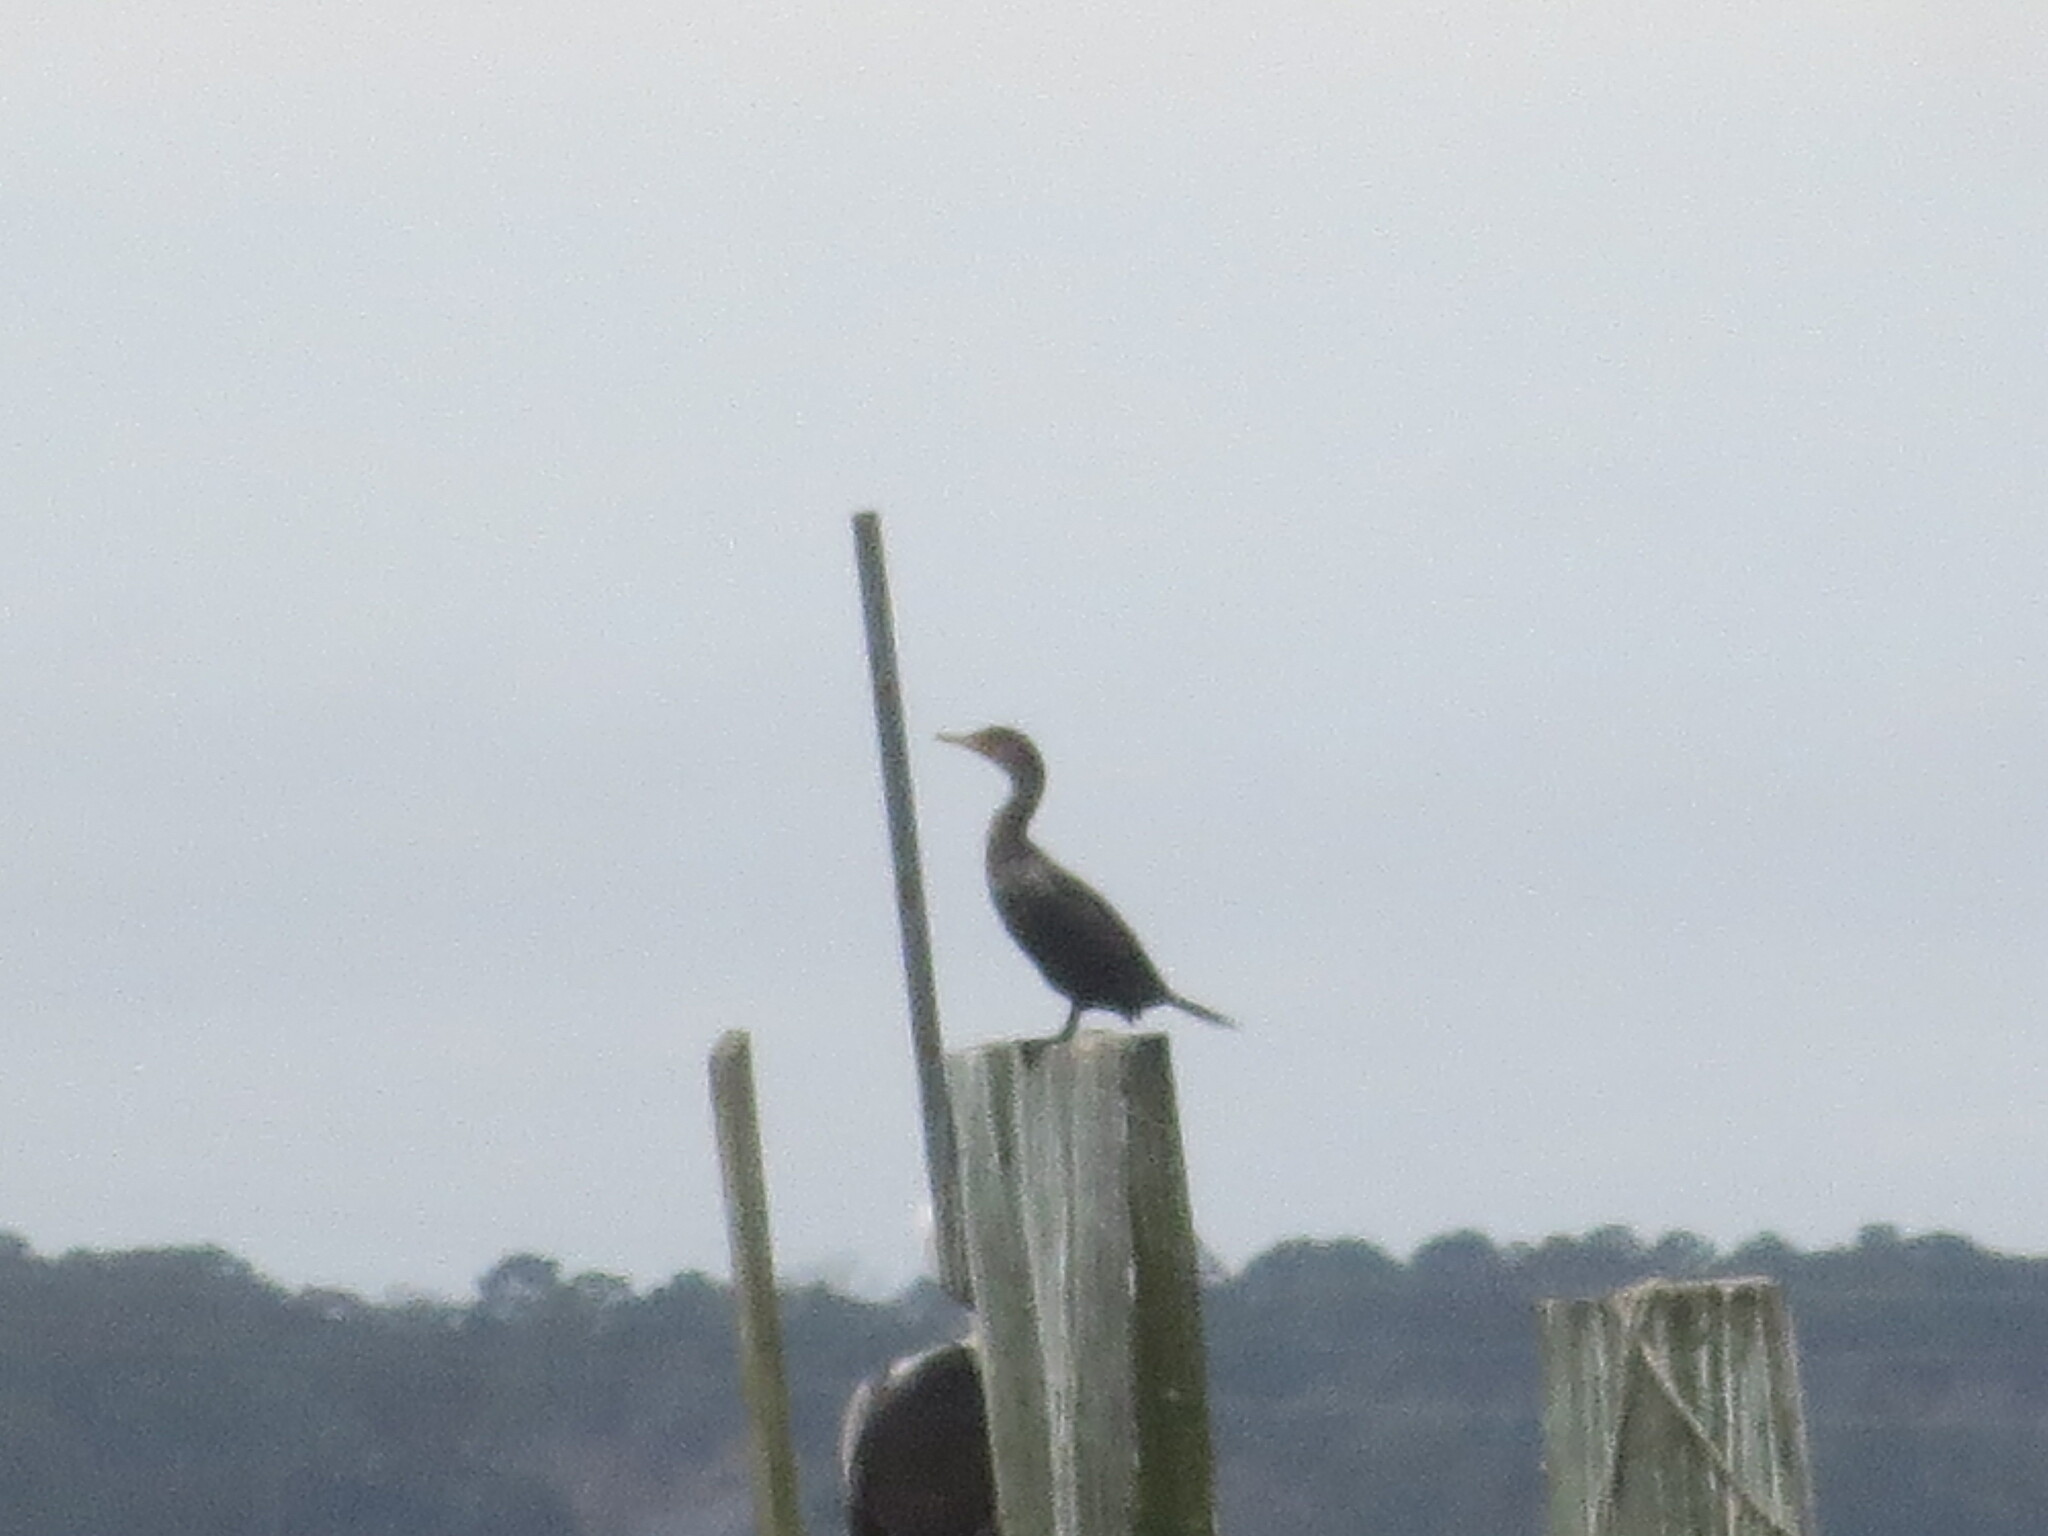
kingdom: Animalia
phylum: Chordata
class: Aves
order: Suliformes
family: Phalacrocoracidae
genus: Phalacrocorax
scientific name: Phalacrocorax auritus
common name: Double-crested cormorant
